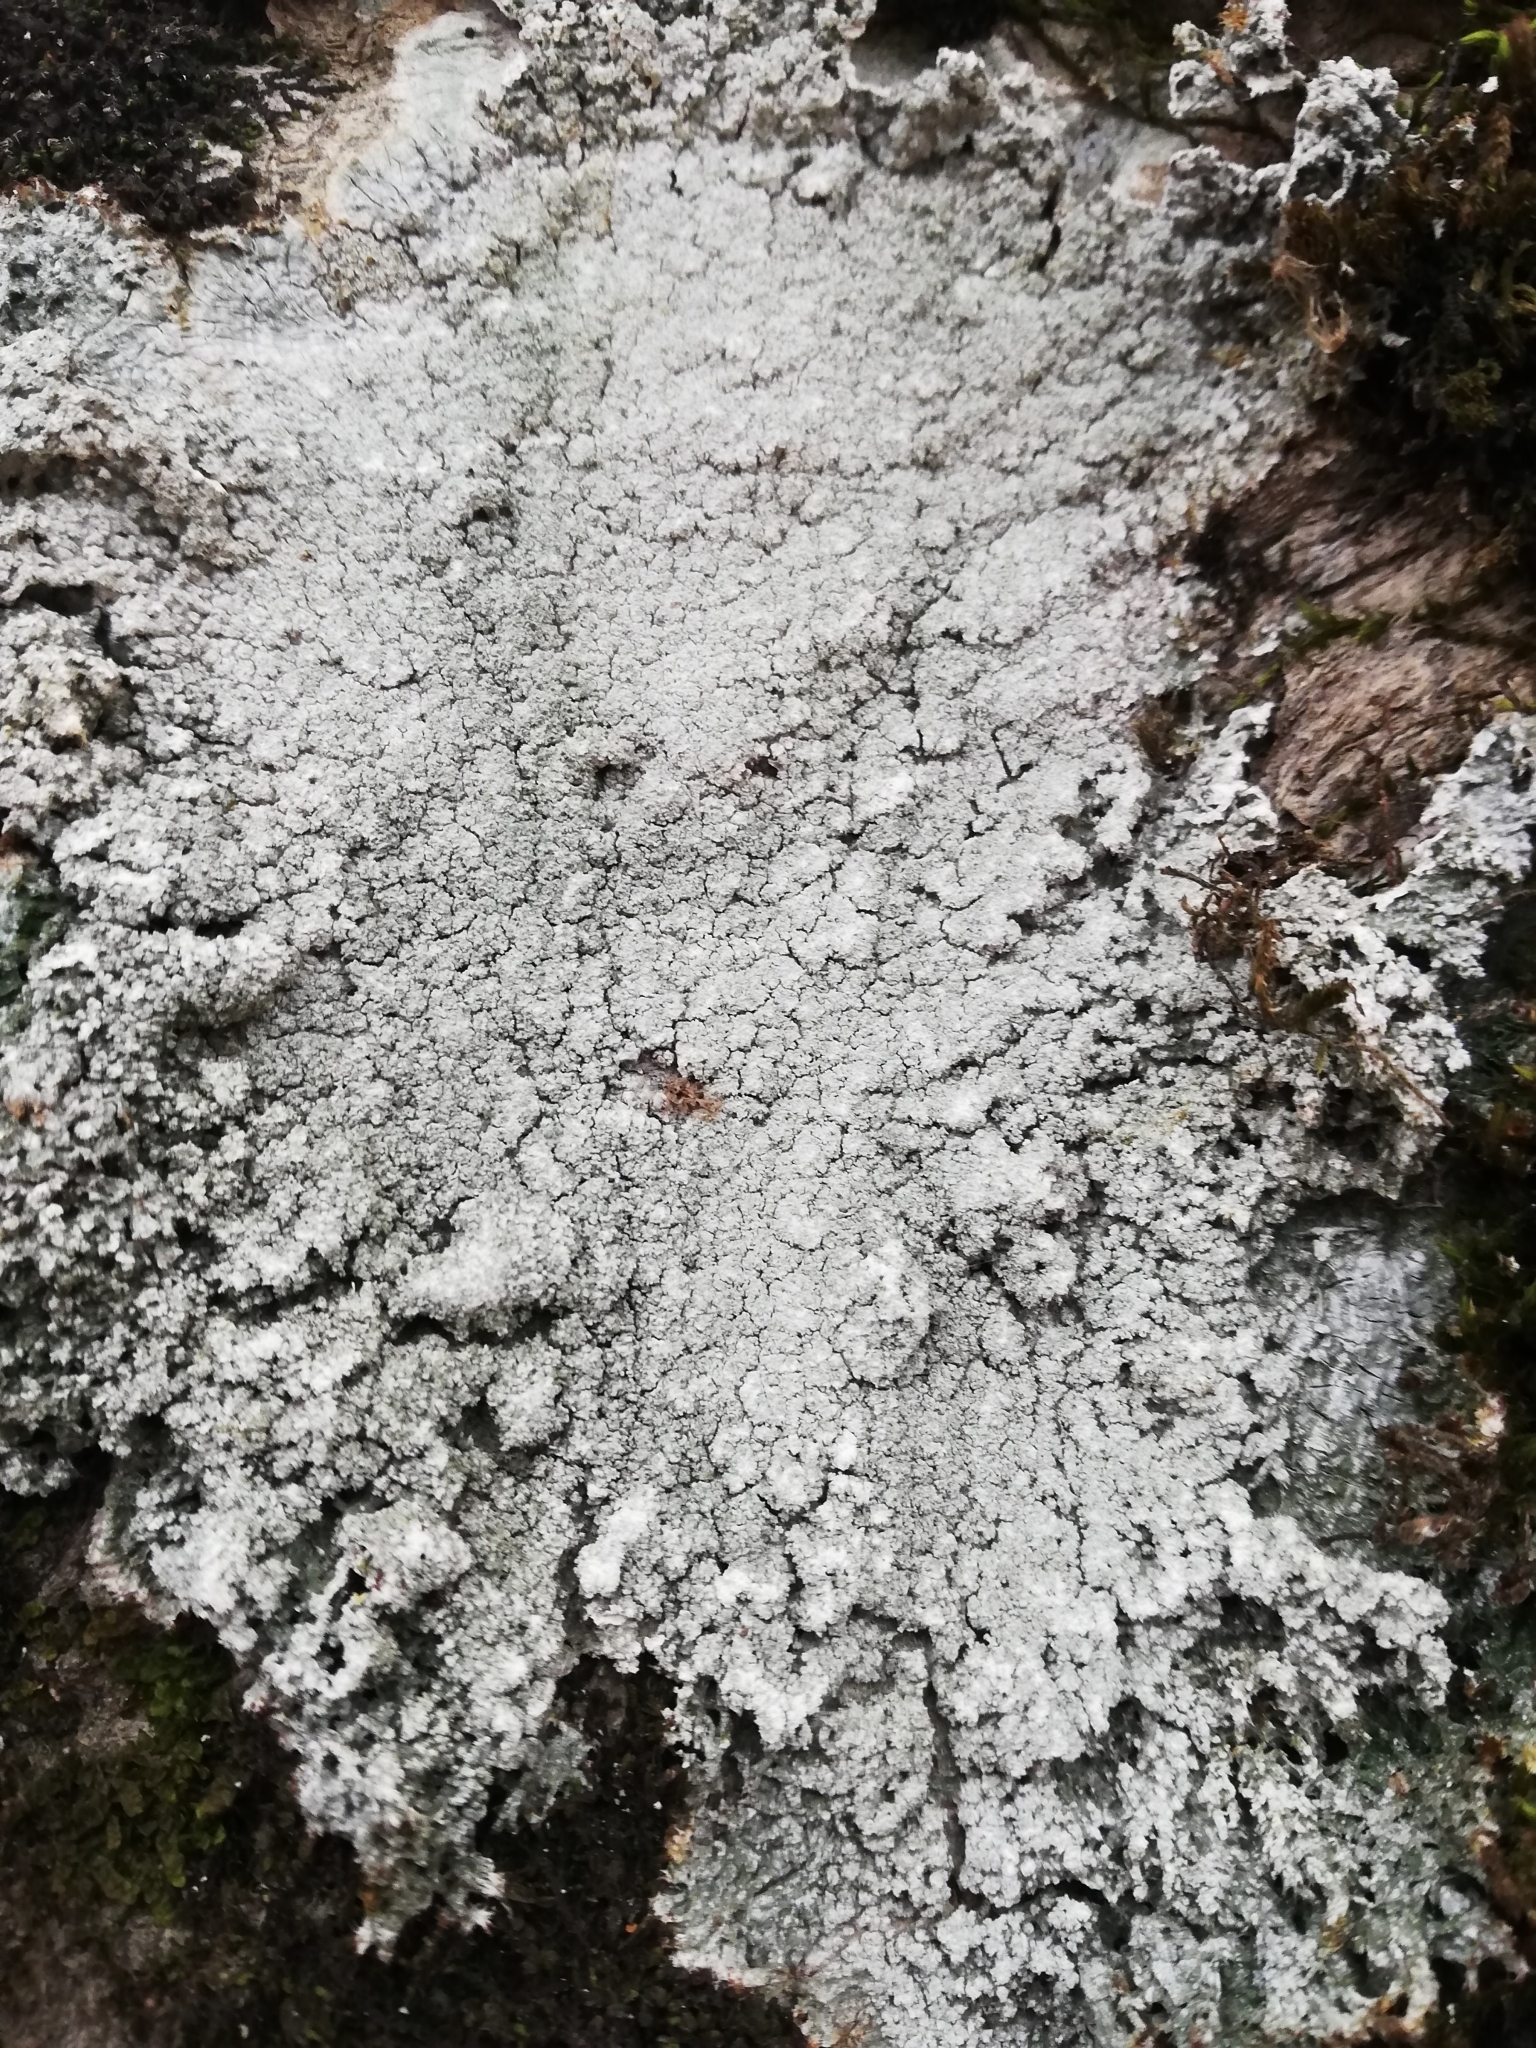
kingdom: Fungi
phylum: Ascomycota
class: Lecanoromycetes
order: Pertusariales
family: Pertusariaceae
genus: Lepra
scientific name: Lepra amara
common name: Bitter wart lichen
